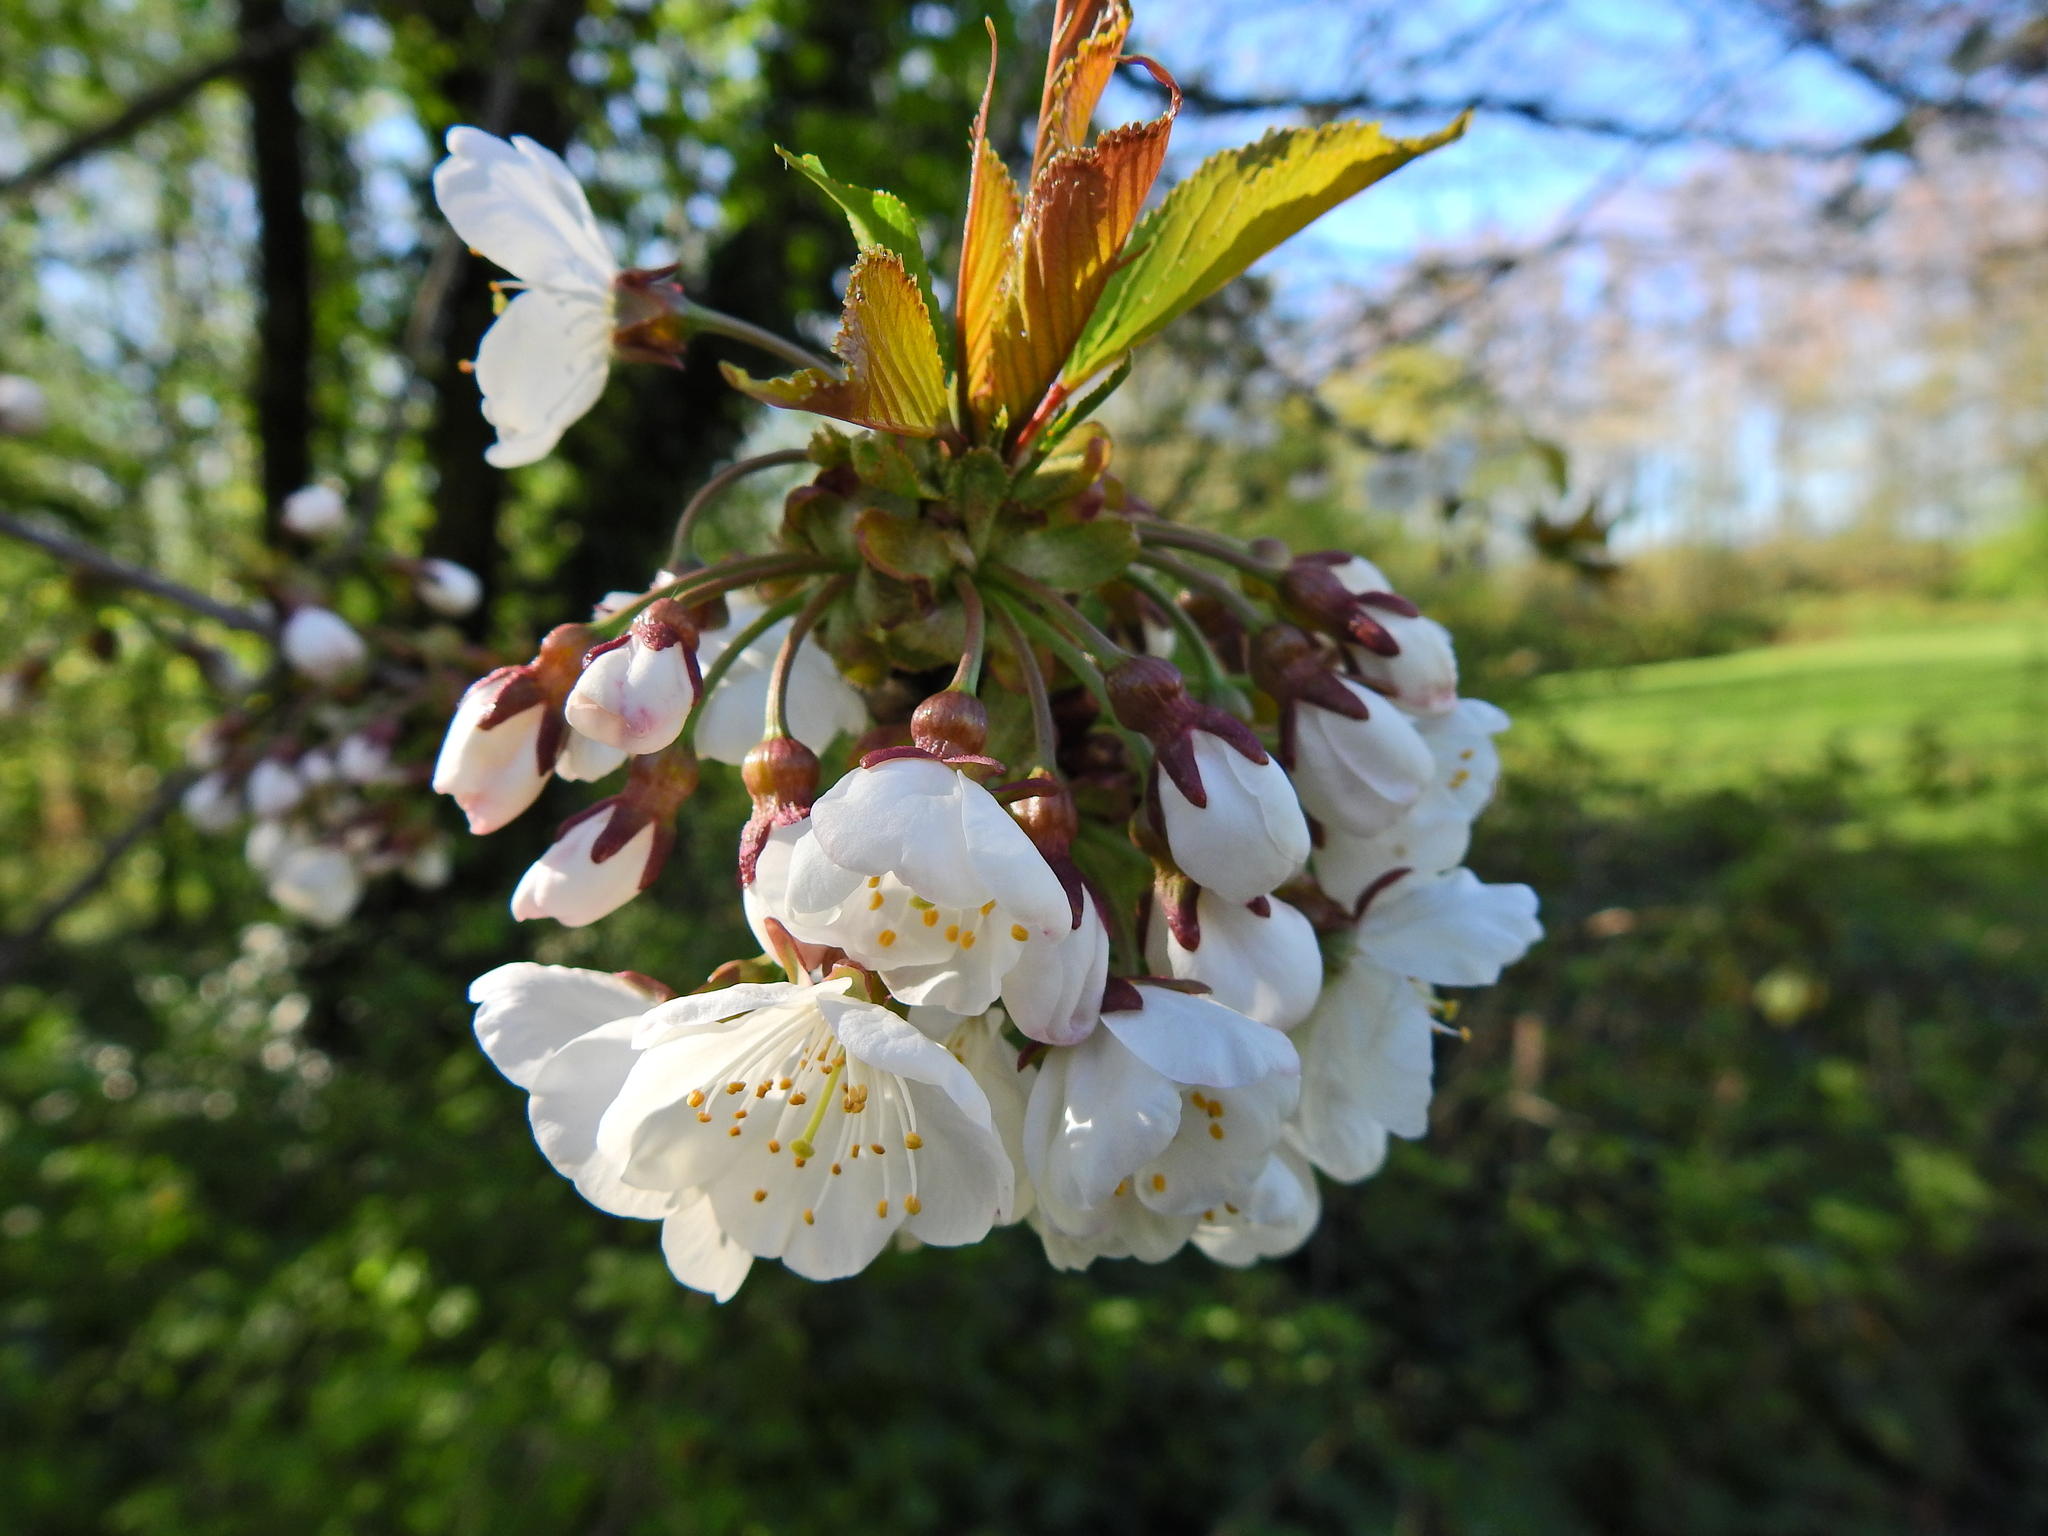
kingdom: Plantae
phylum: Tracheophyta
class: Magnoliopsida
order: Rosales
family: Rosaceae
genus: Prunus
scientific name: Prunus avium
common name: Sweet cherry
